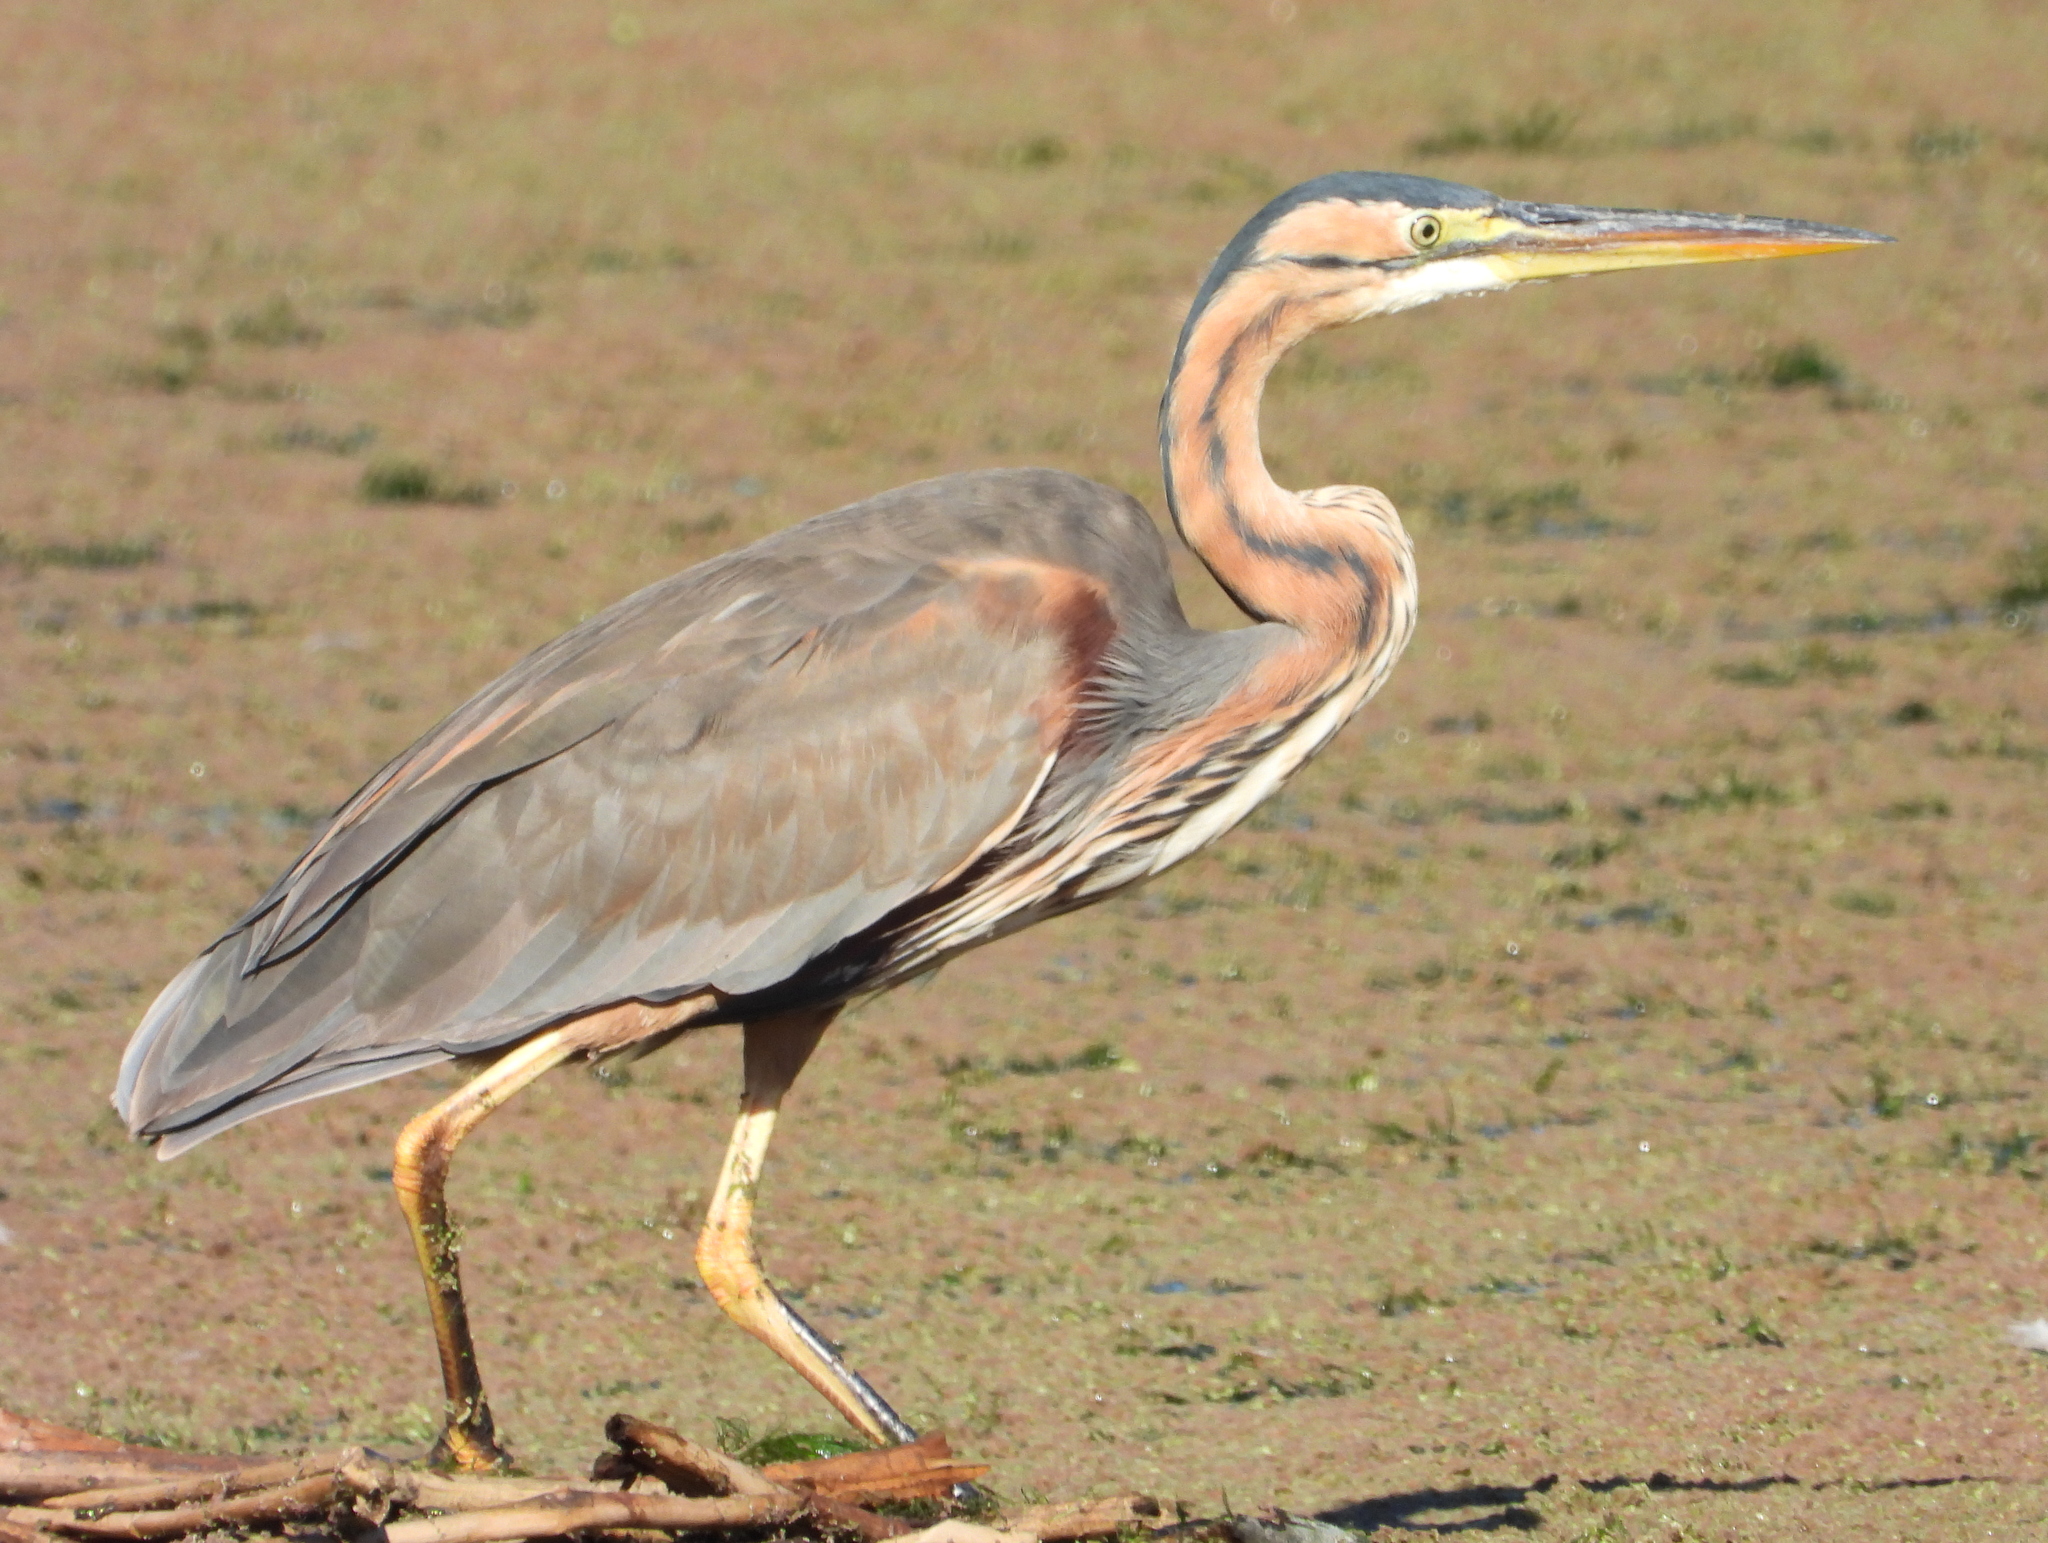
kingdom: Animalia
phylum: Chordata
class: Aves
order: Pelecaniformes
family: Ardeidae
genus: Ardea
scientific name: Ardea purpurea
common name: Purple heron
